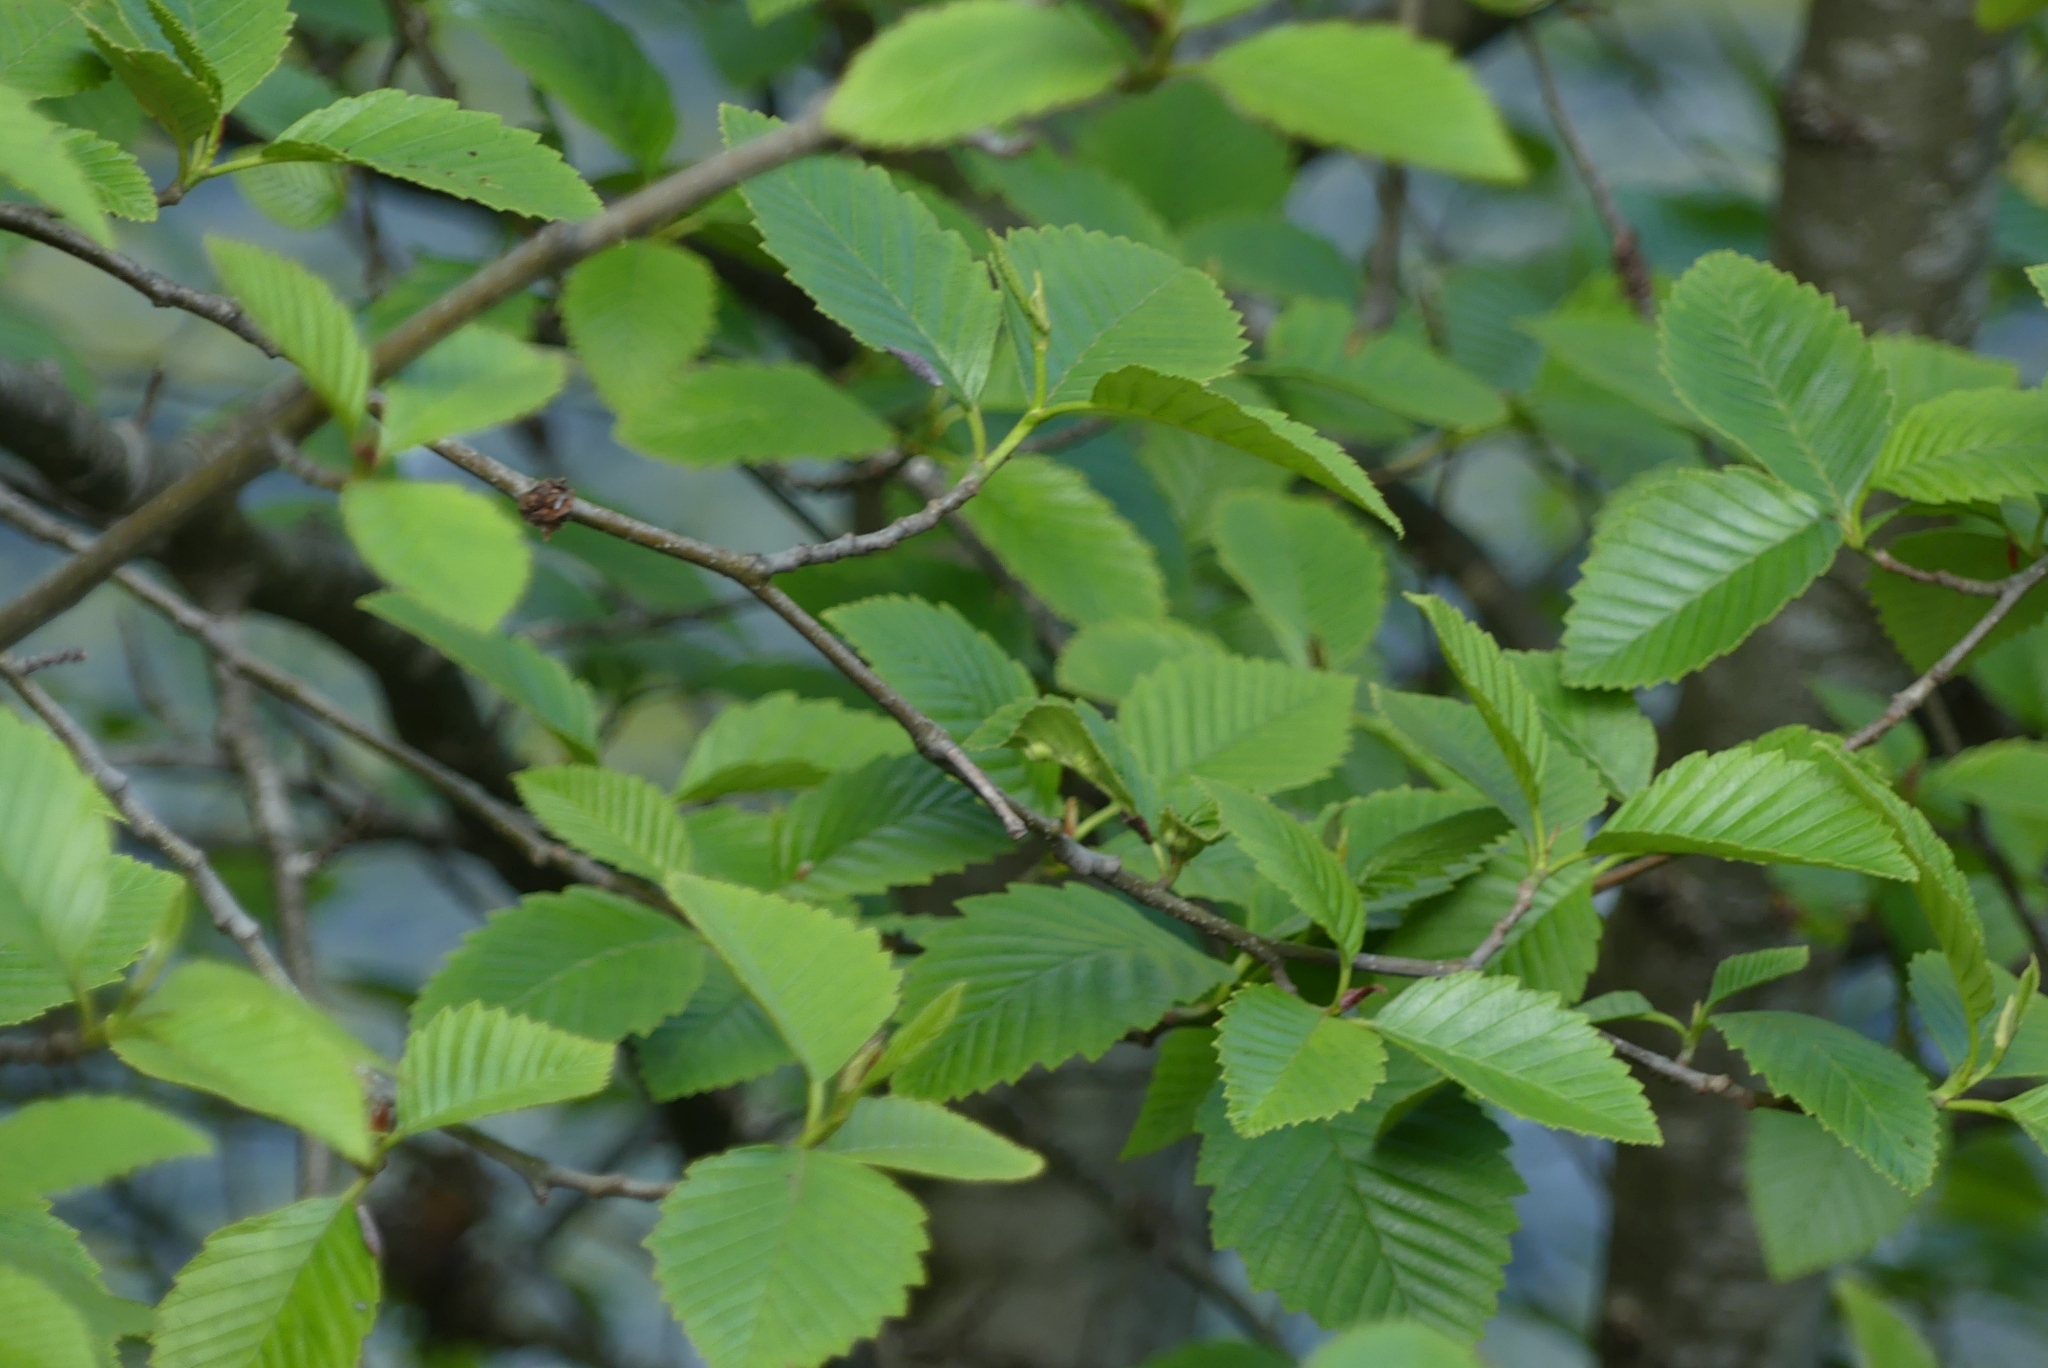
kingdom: Plantae
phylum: Tracheophyta
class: Magnoliopsida
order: Fagales
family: Betulaceae
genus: Alnus
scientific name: Alnus rubra
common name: Red alder
